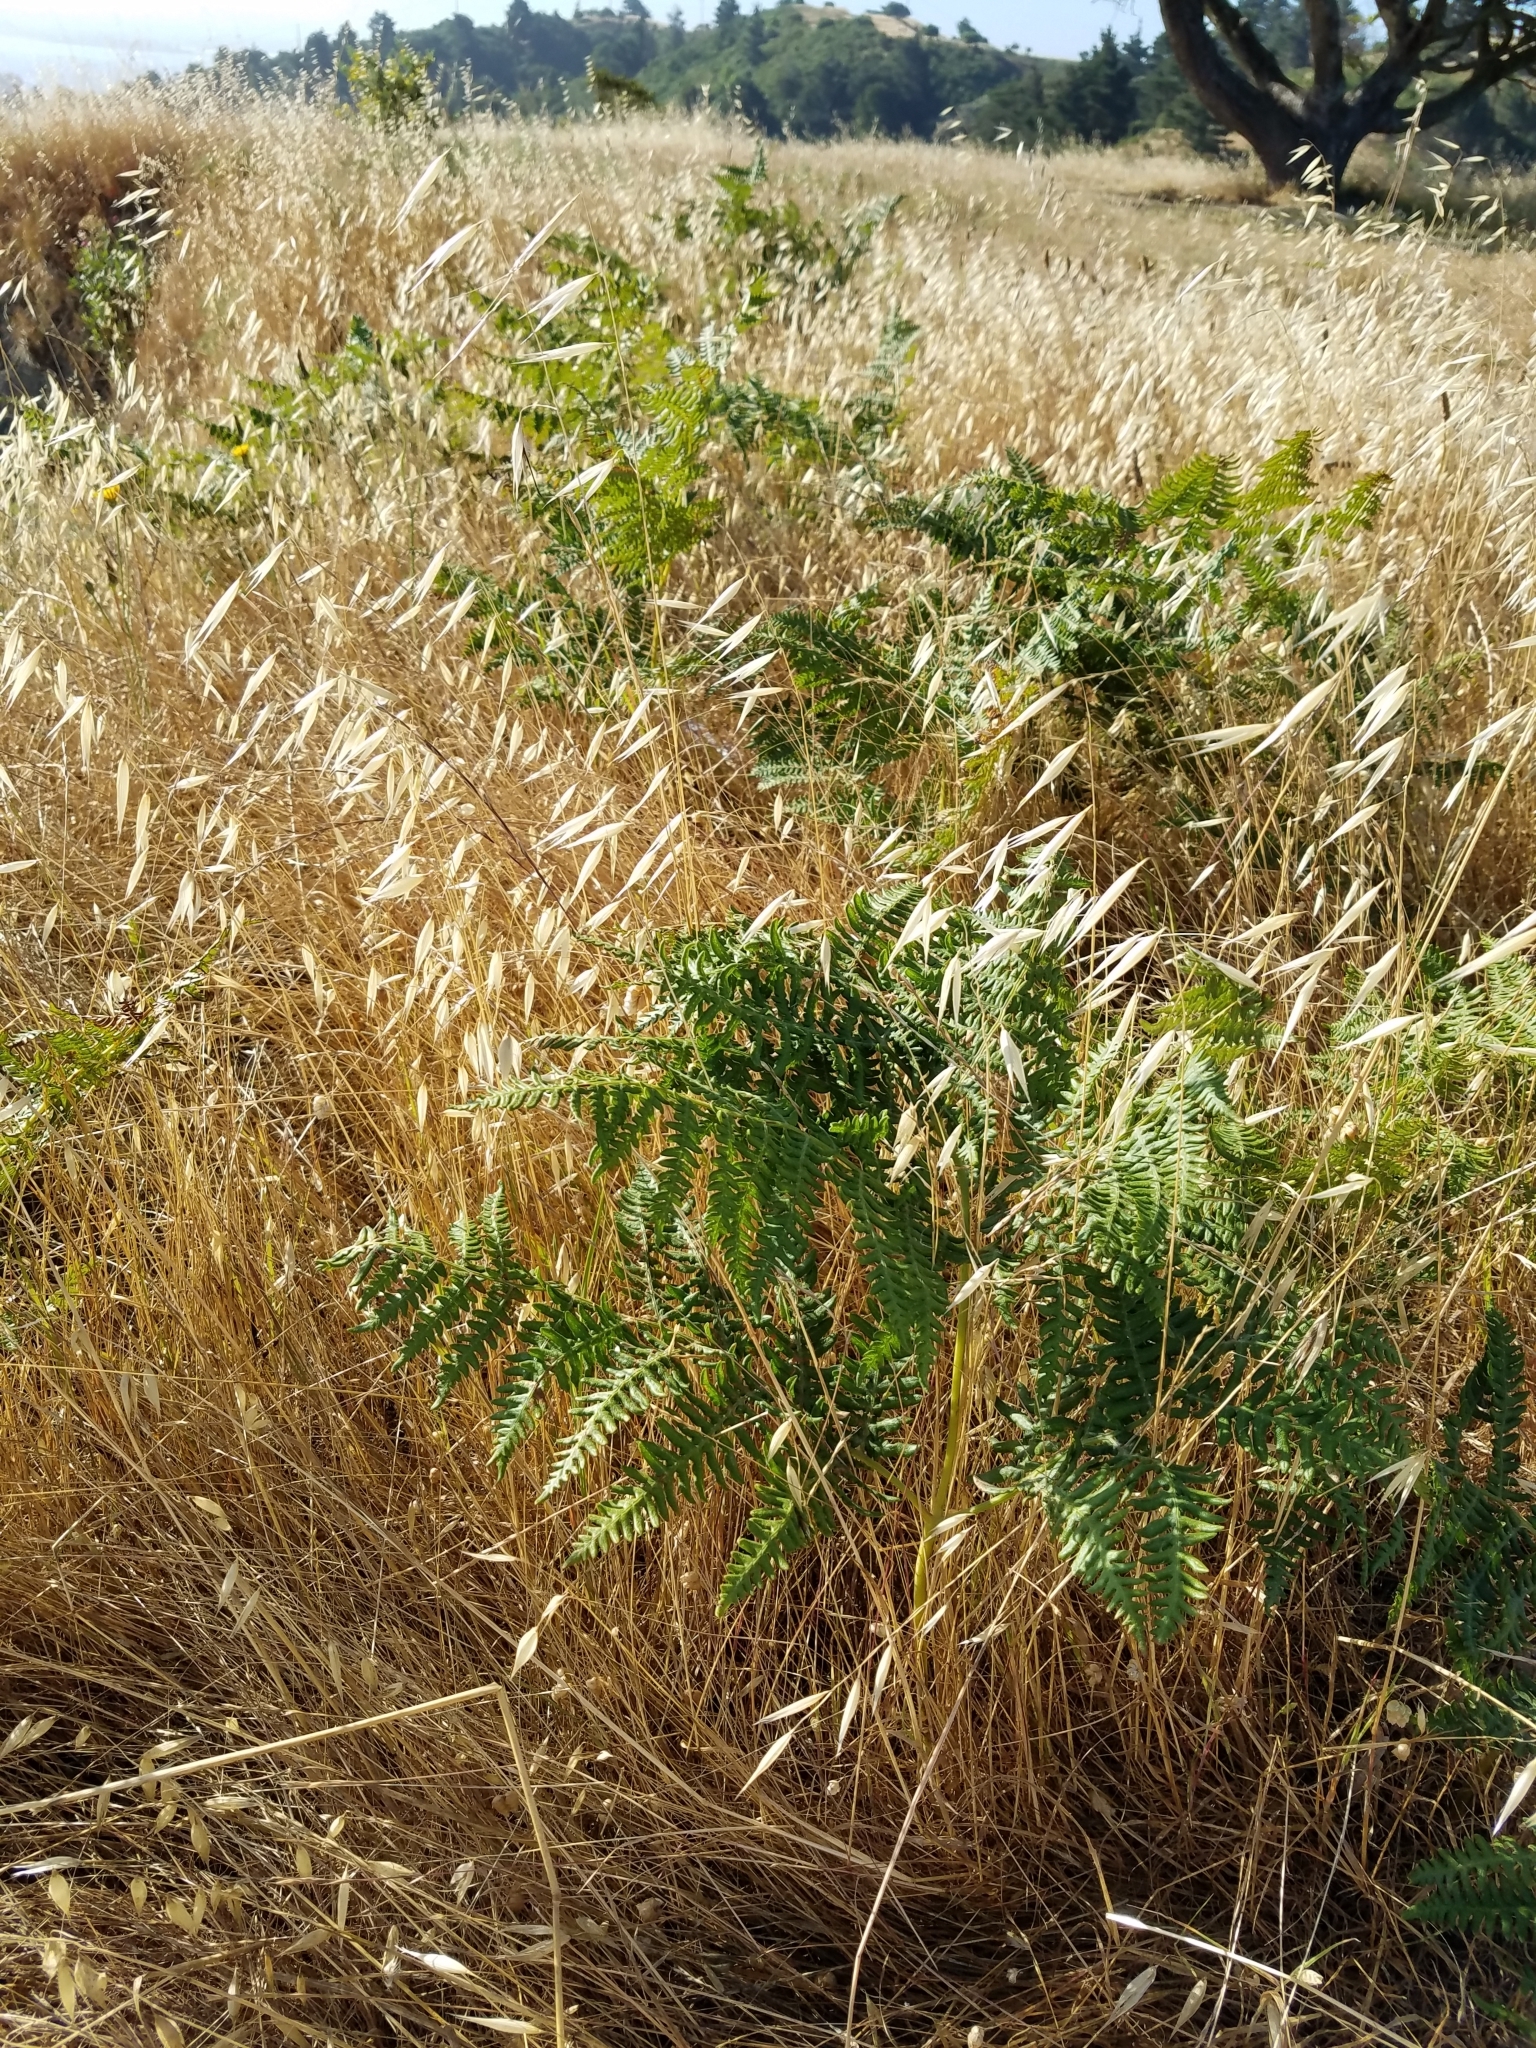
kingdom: Plantae
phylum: Tracheophyta
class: Polypodiopsida
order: Polypodiales
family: Dennstaedtiaceae
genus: Pteridium
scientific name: Pteridium aquilinum
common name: Bracken
